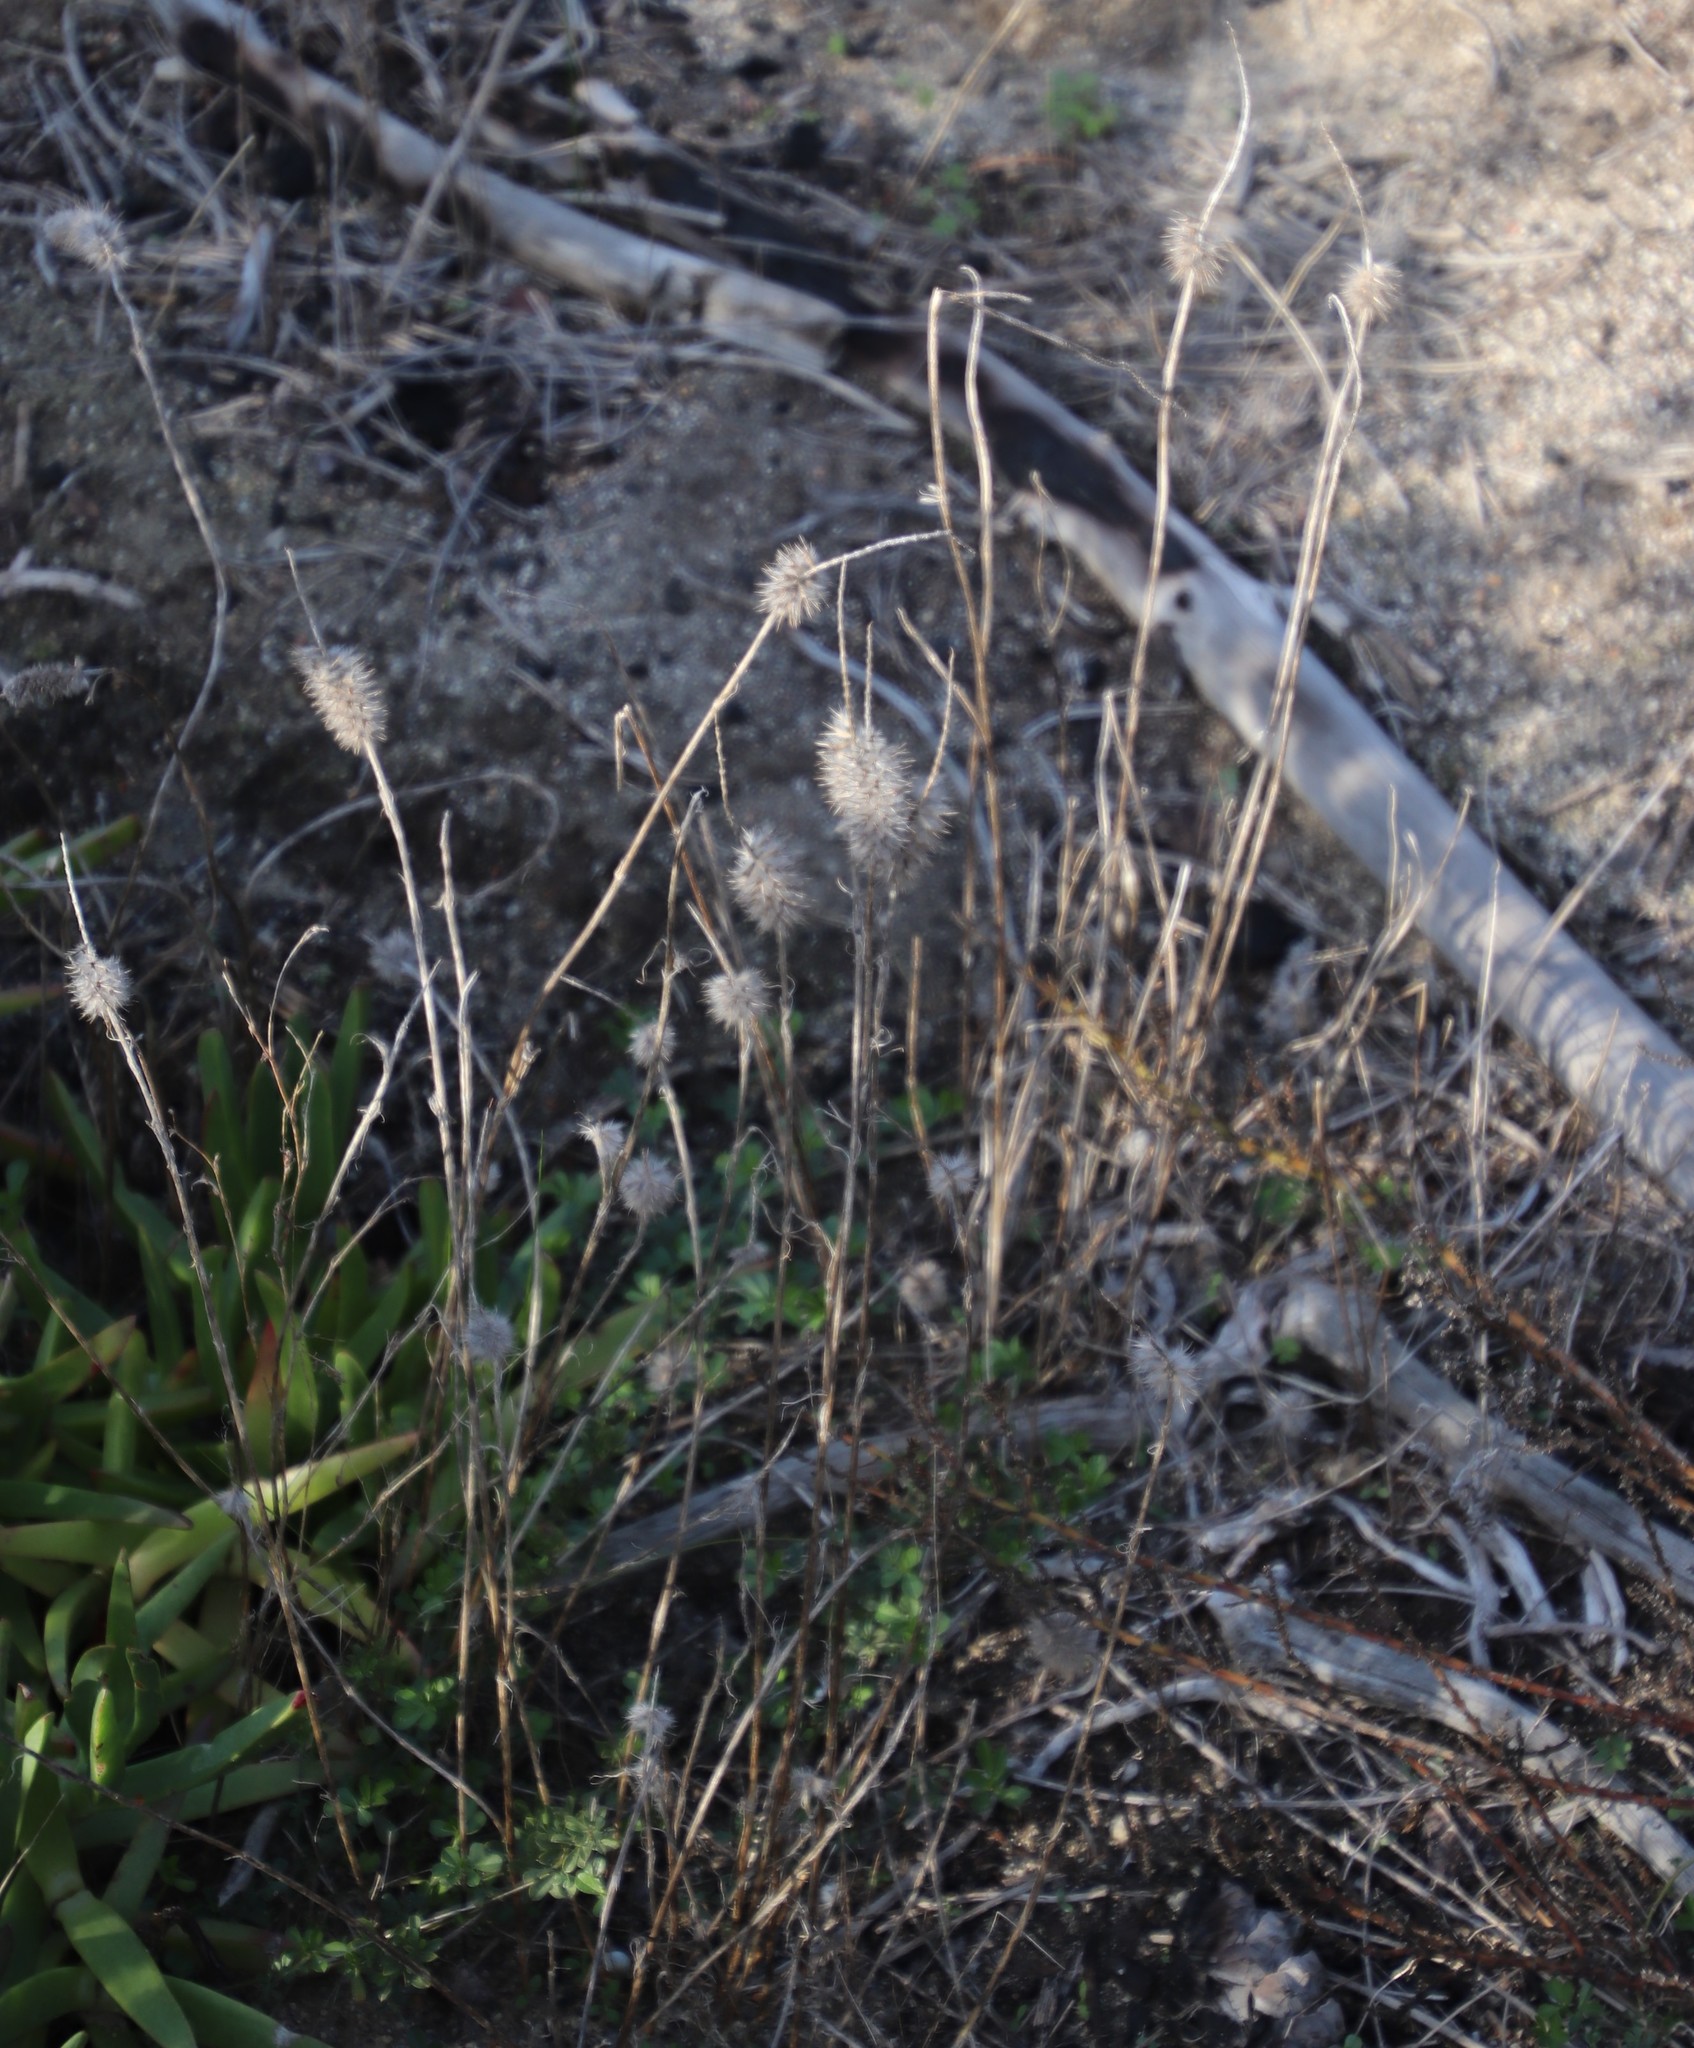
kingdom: Plantae
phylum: Tracheophyta
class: Magnoliopsida
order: Fabales
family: Fabaceae
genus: Trifolium
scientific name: Trifolium angustifolium
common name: Narrow clover
